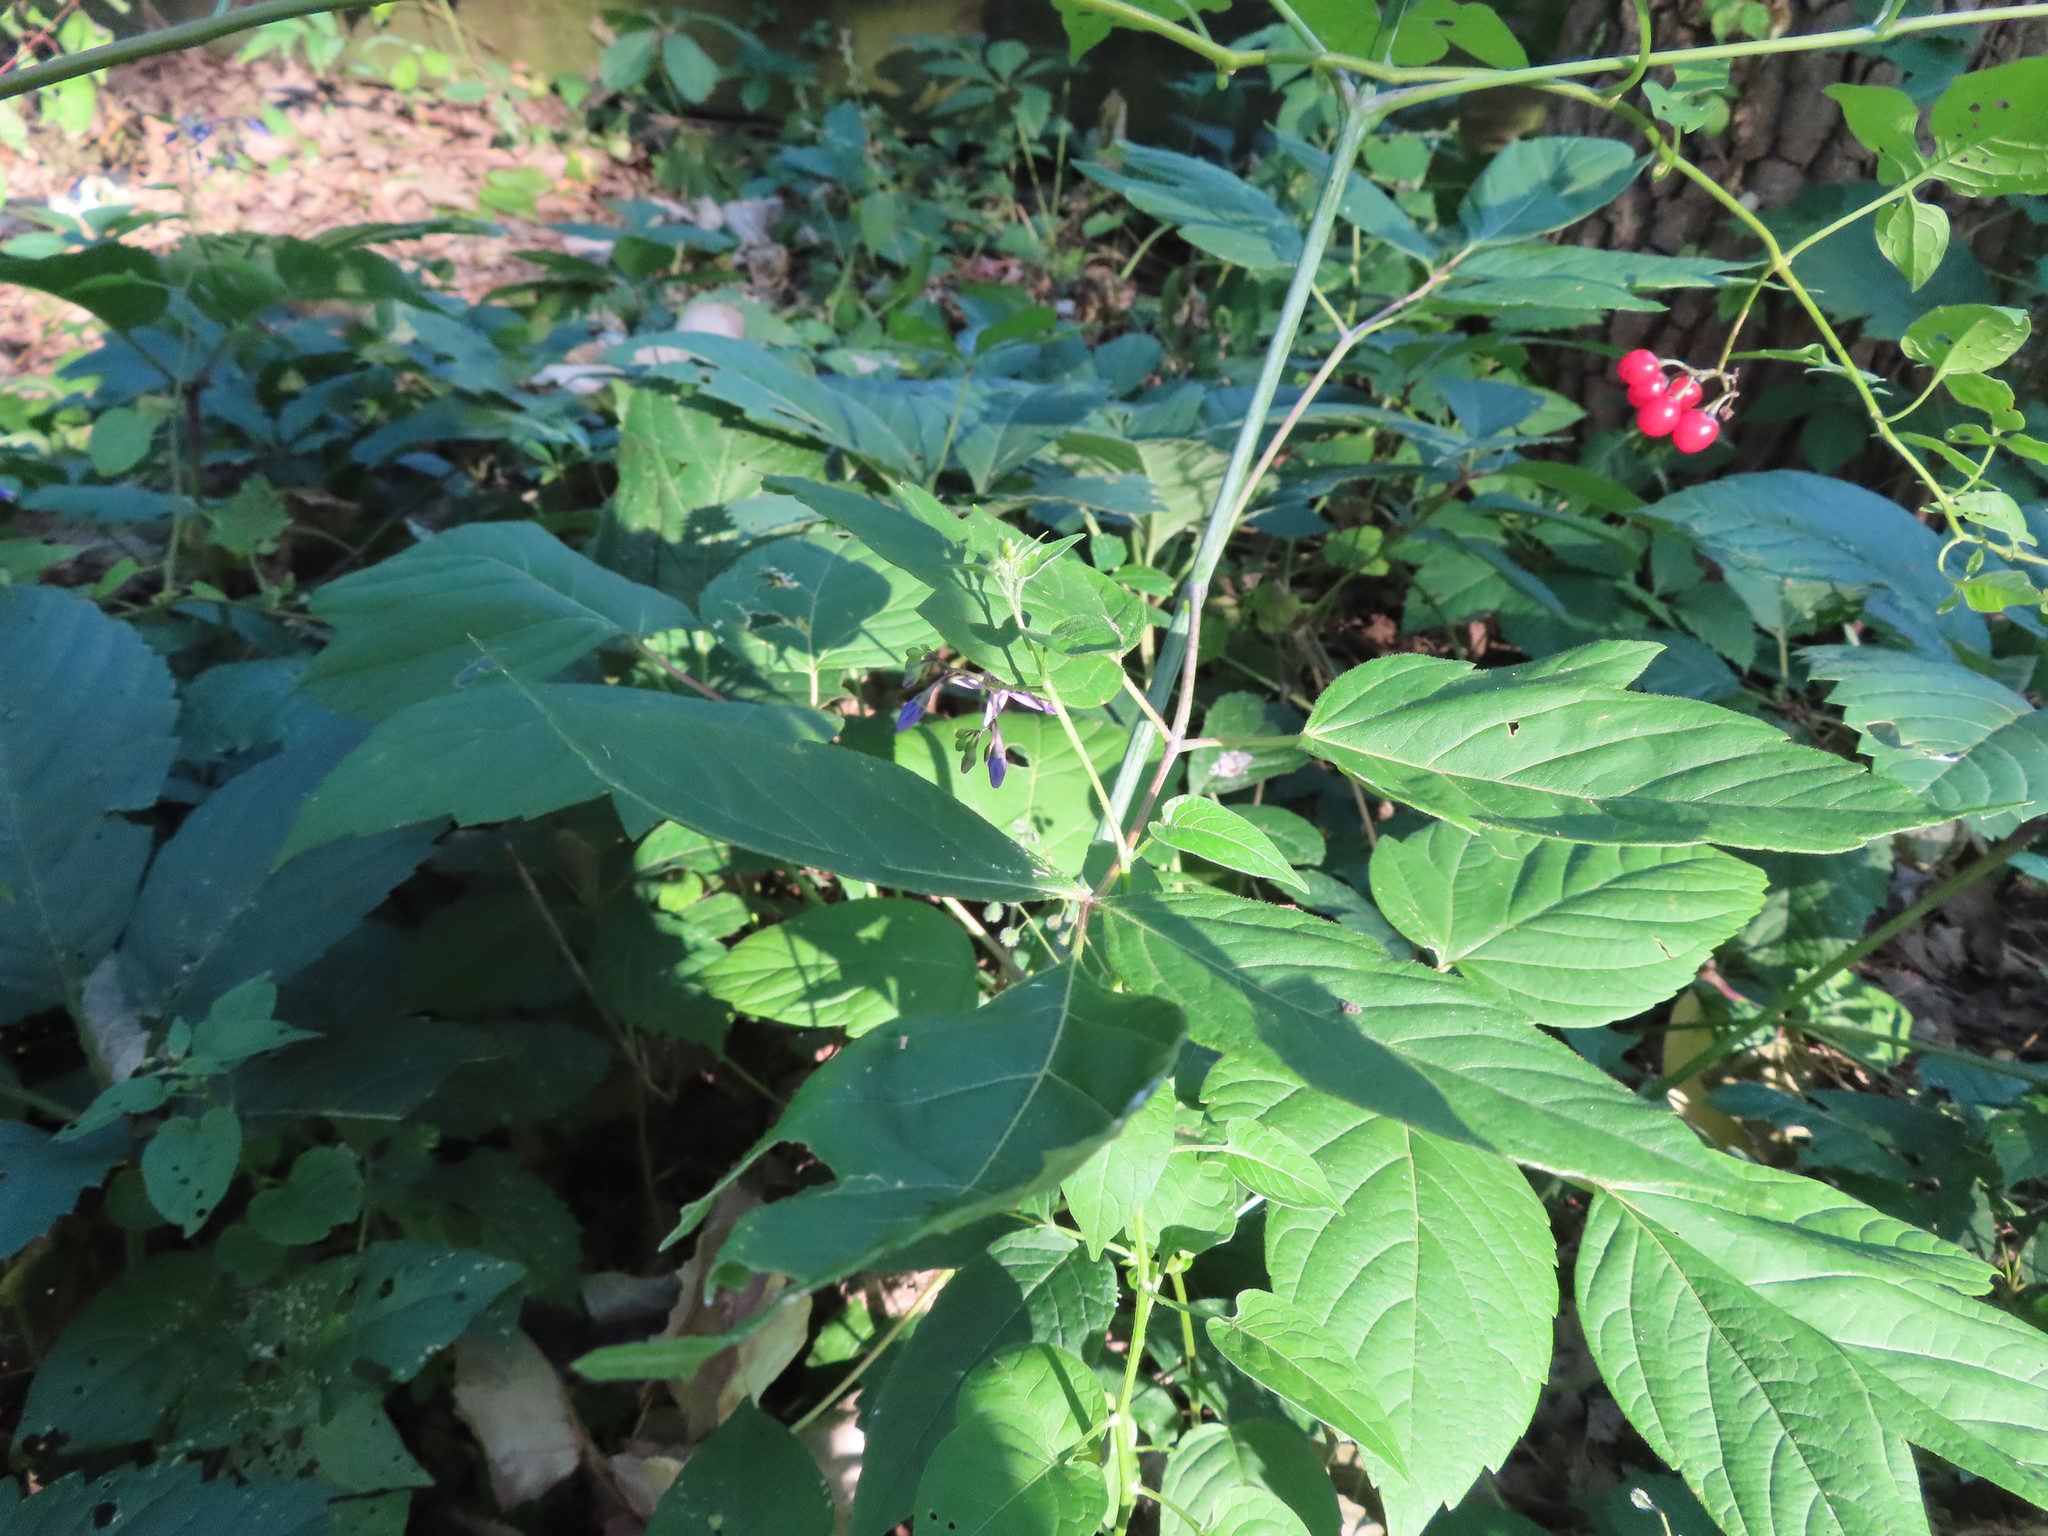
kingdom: Plantae
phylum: Tracheophyta
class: Magnoliopsida
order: Solanales
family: Solanaceae
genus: Solanum
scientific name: Solanum dulcamara
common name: Climbing nightshade
